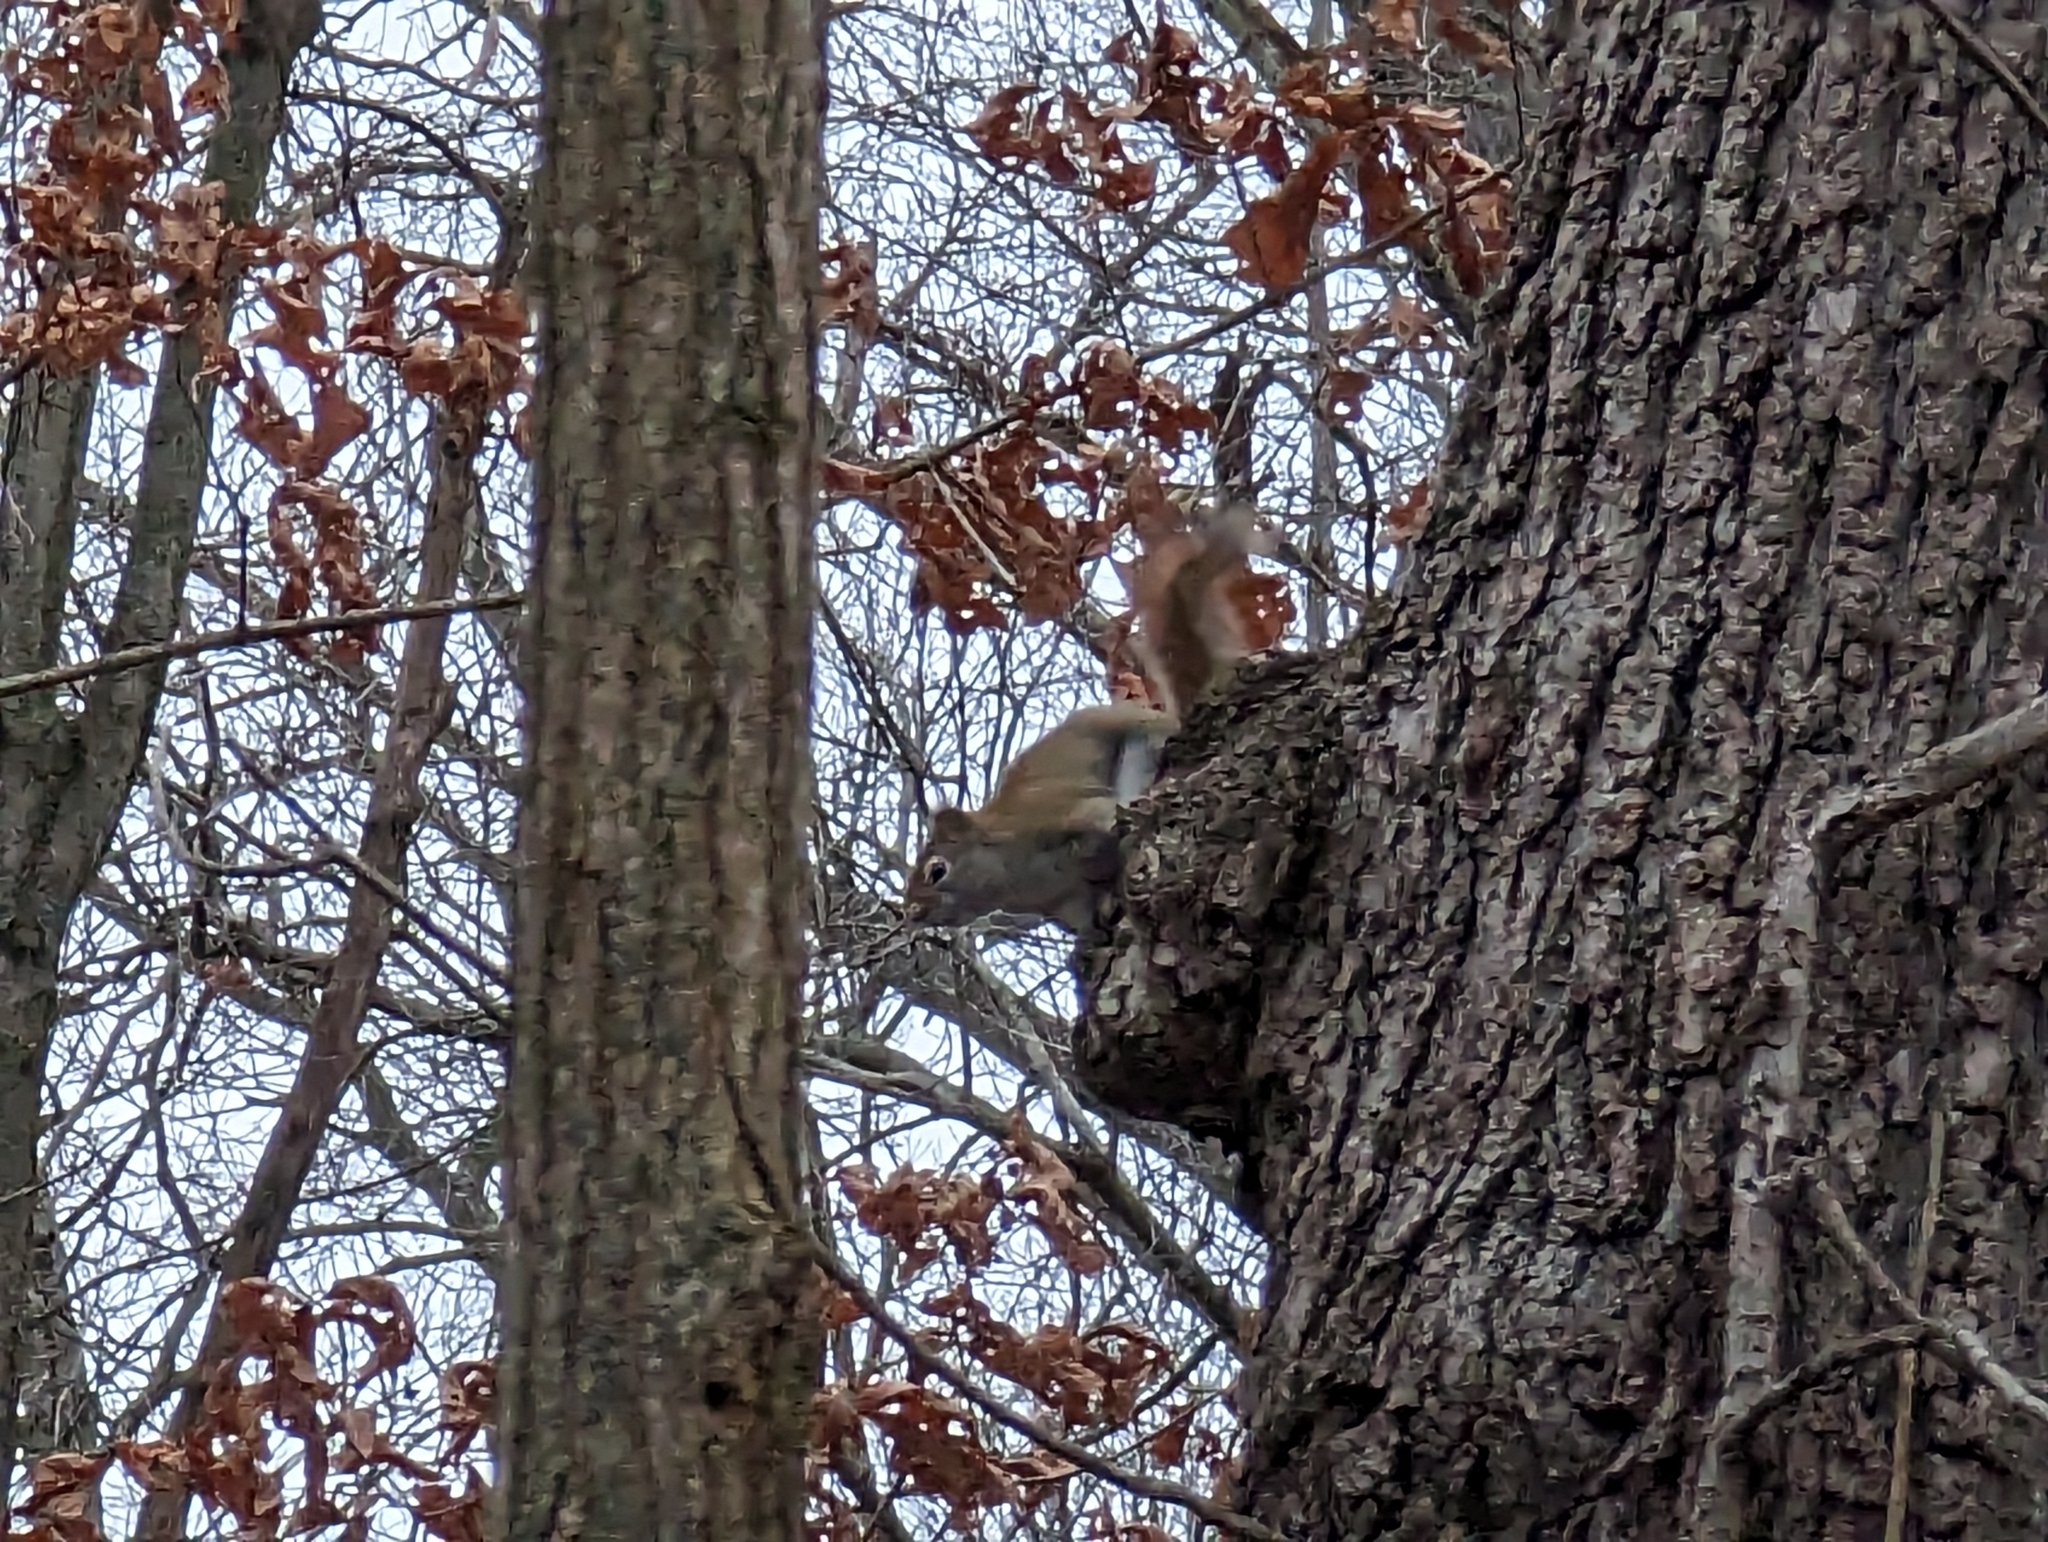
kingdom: Animalia
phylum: Chordata
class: Mammalia
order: Rodentia
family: Sciuridae
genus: Tamiasciurus
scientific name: Tamiasciurus hudsonicus
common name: Red squirrel
